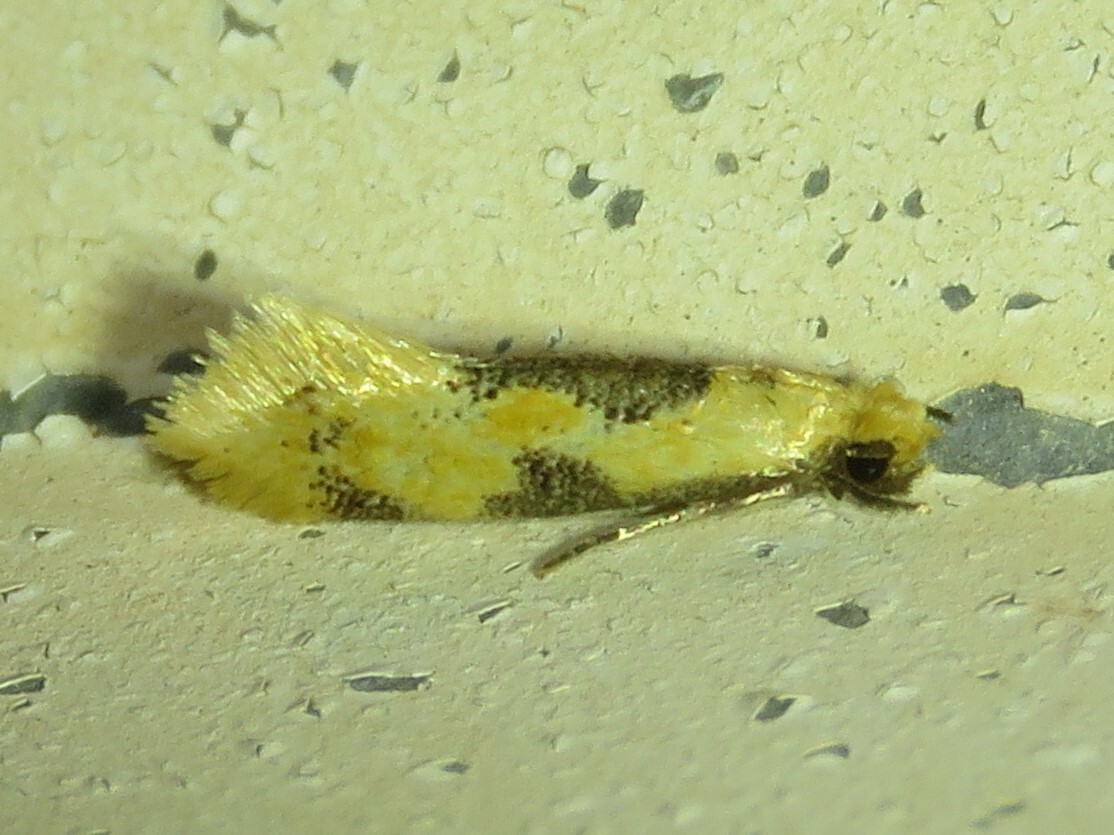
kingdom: Animalia
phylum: Arthropoda
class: Insecta
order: Lepidoptera
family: Meessiidae
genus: Hybroma
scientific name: Hybroma servulella
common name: Yellow wave moth
